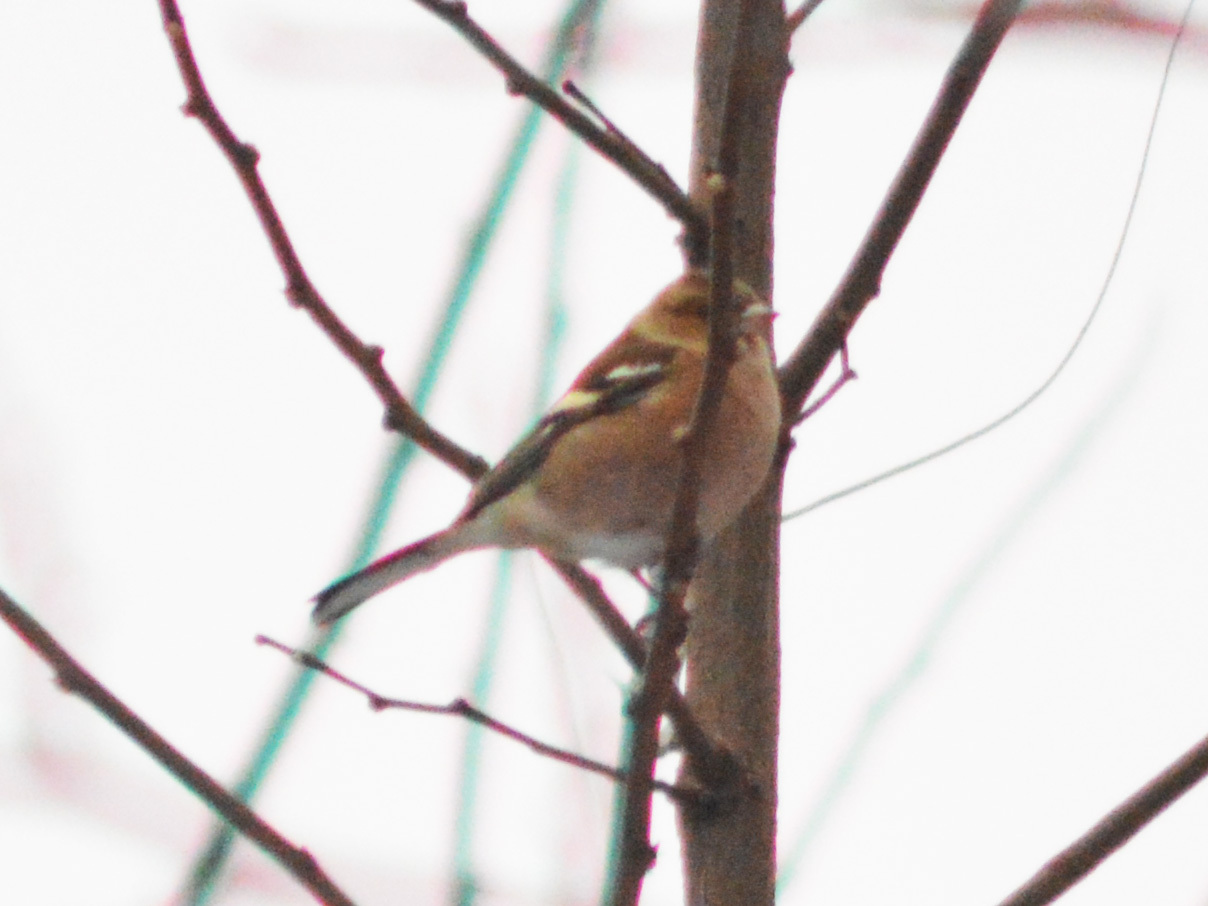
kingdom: Animalia
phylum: Chordata
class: Aves
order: Passeriformes
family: Fringillidae
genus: Fringilla
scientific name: Fringilla coelebs
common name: Common chaffinch
